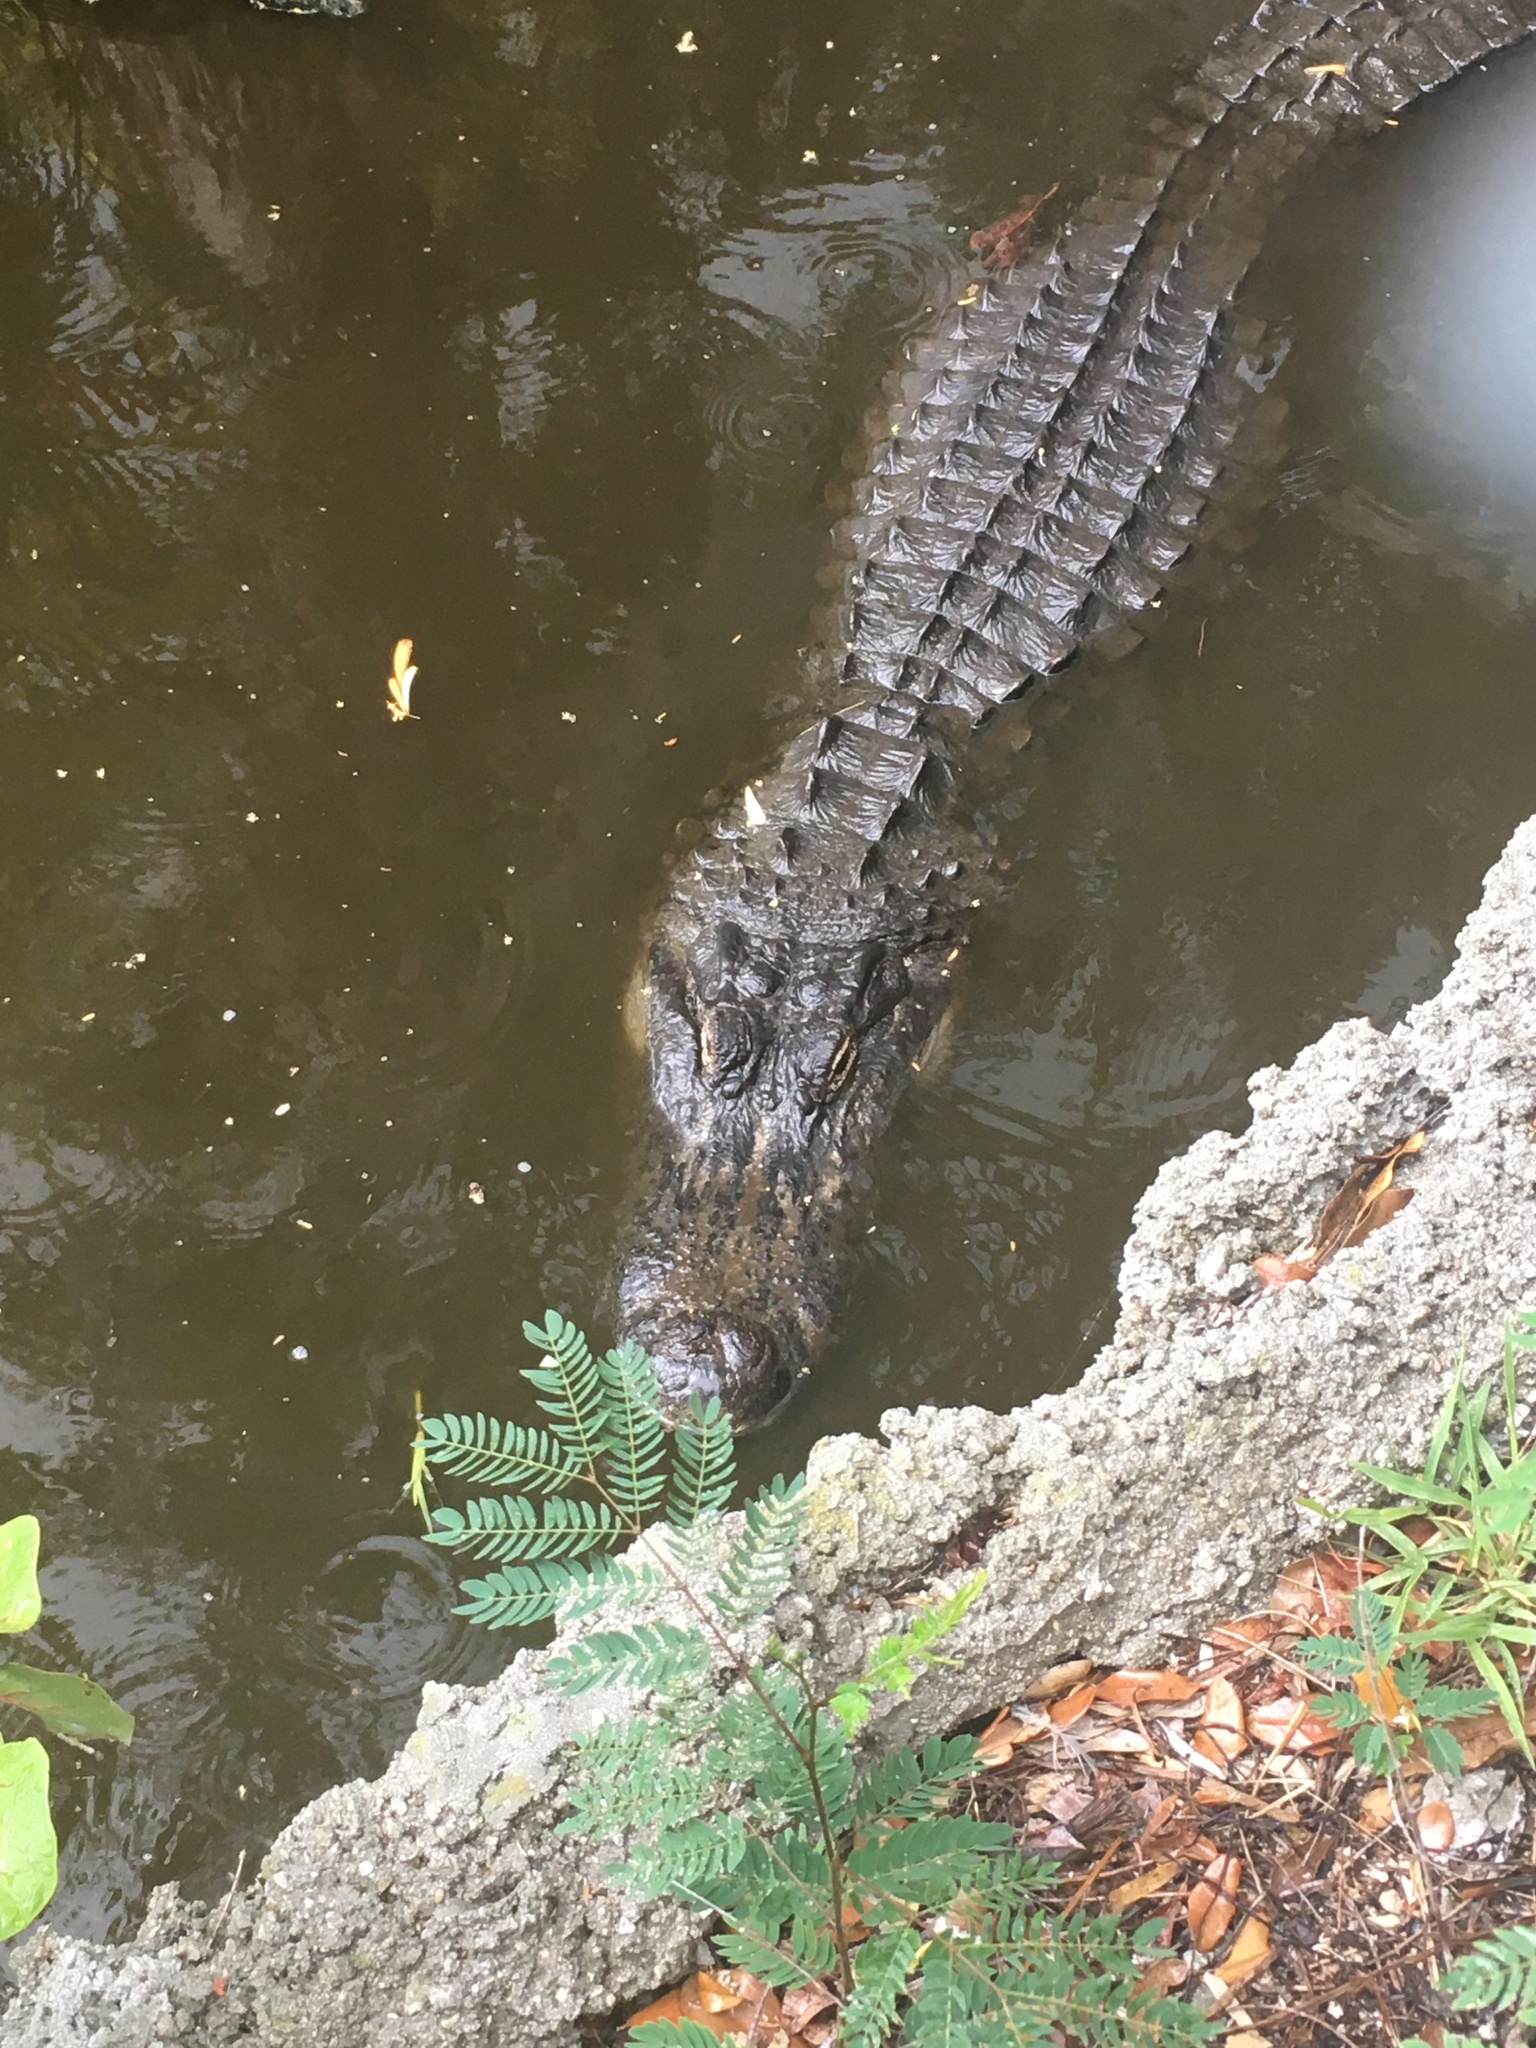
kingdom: Animalia
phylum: Chordata
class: Crocodylia
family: Alligatoridae
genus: Alligator
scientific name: Alligator mississippiensis
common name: American alligator
